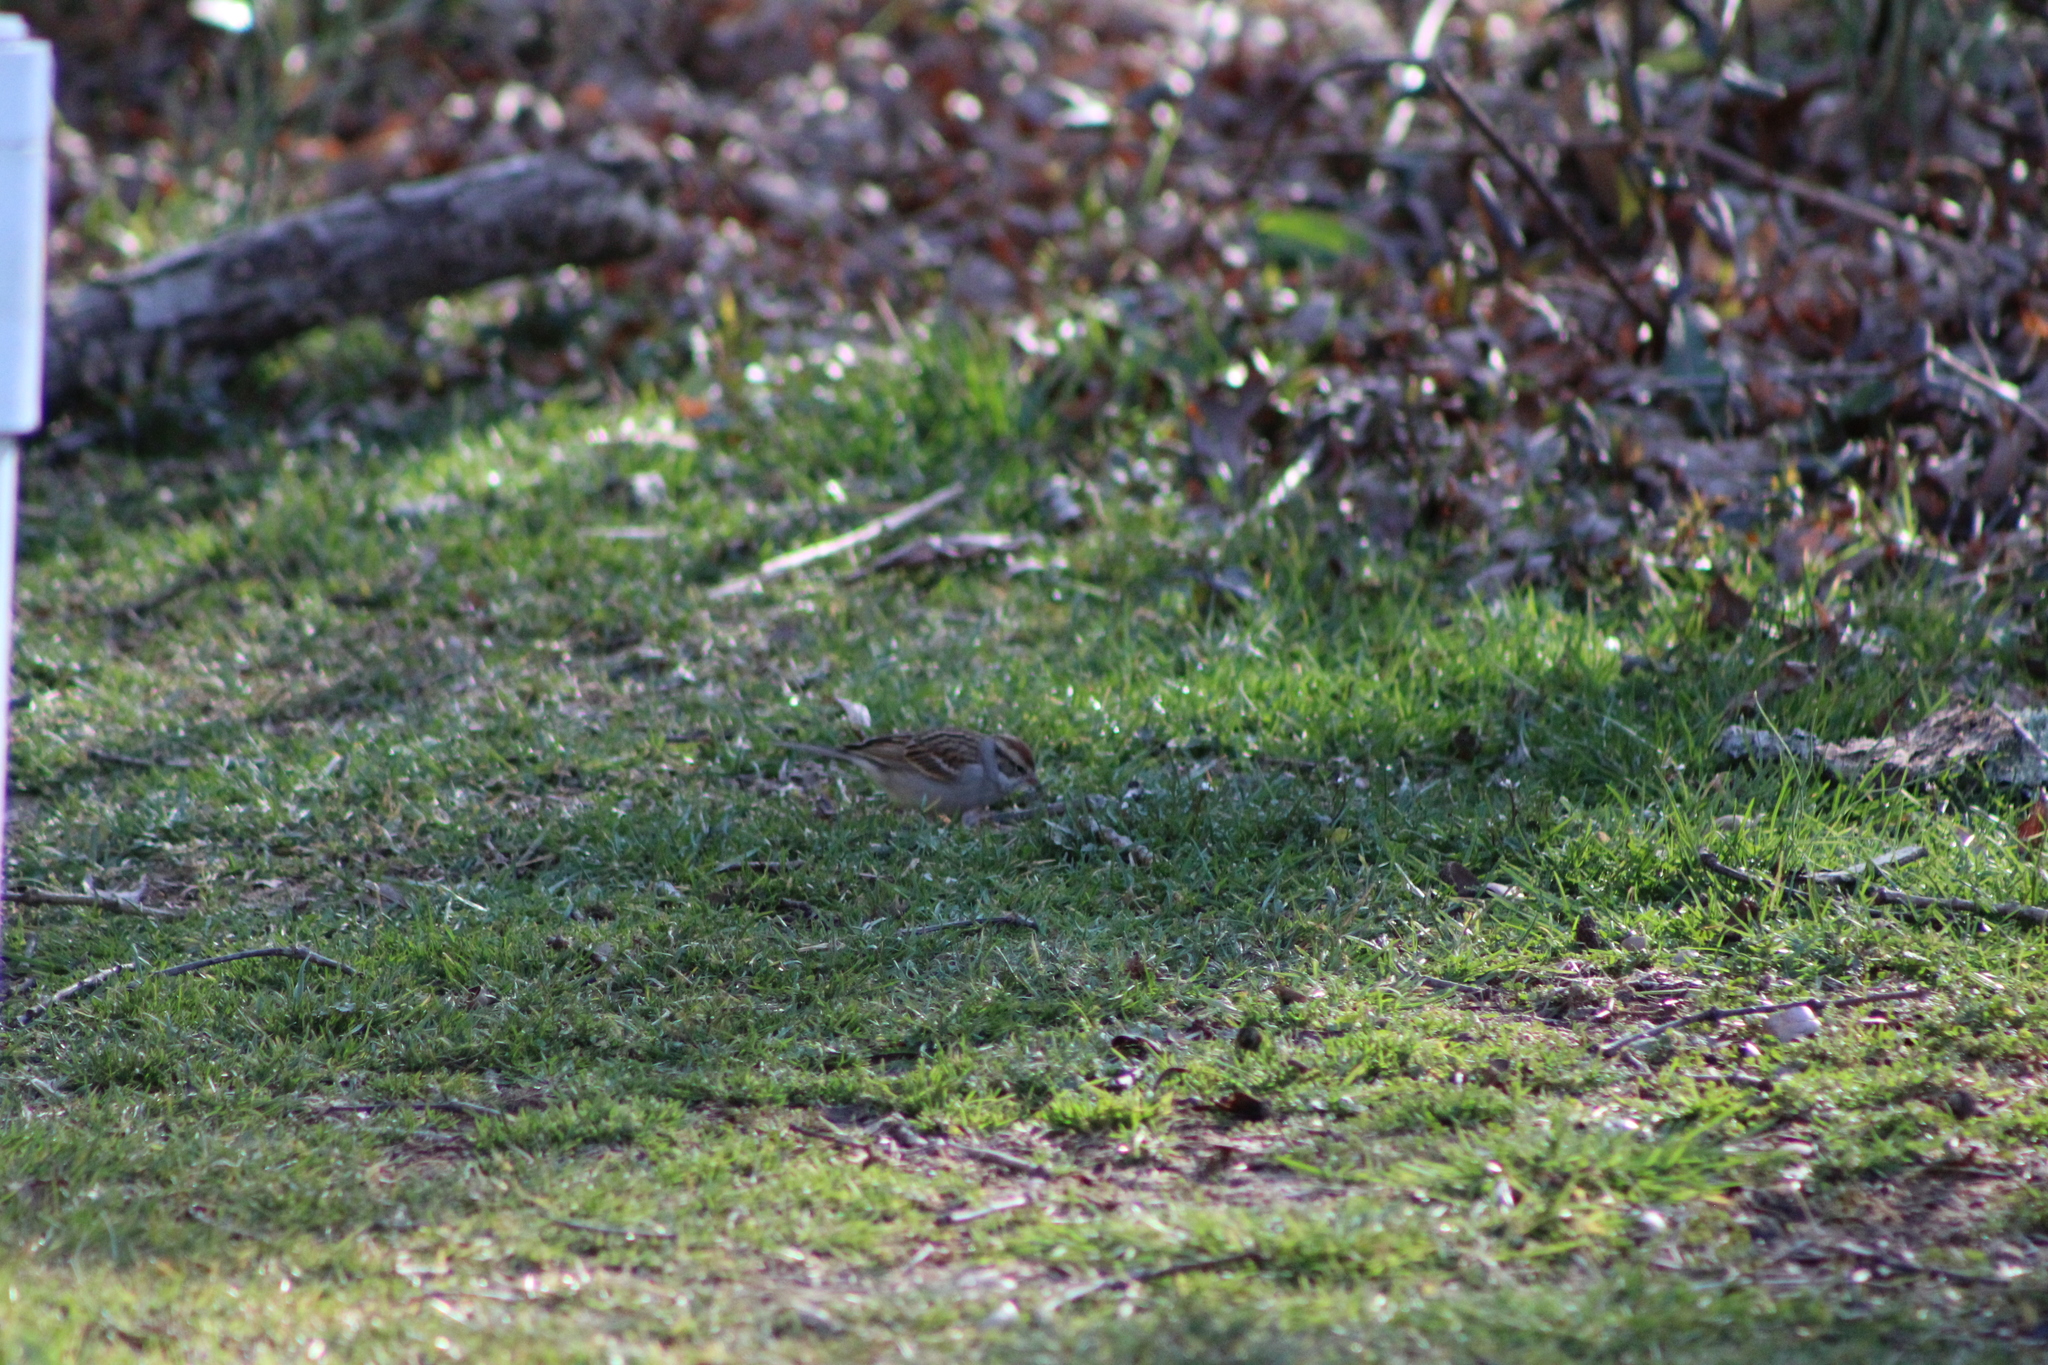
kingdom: Animalia
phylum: Chordata
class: Aves
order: Passeriformes
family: Passerellidae
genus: Spizella
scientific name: Spizella passerina
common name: Chipping sparrow
